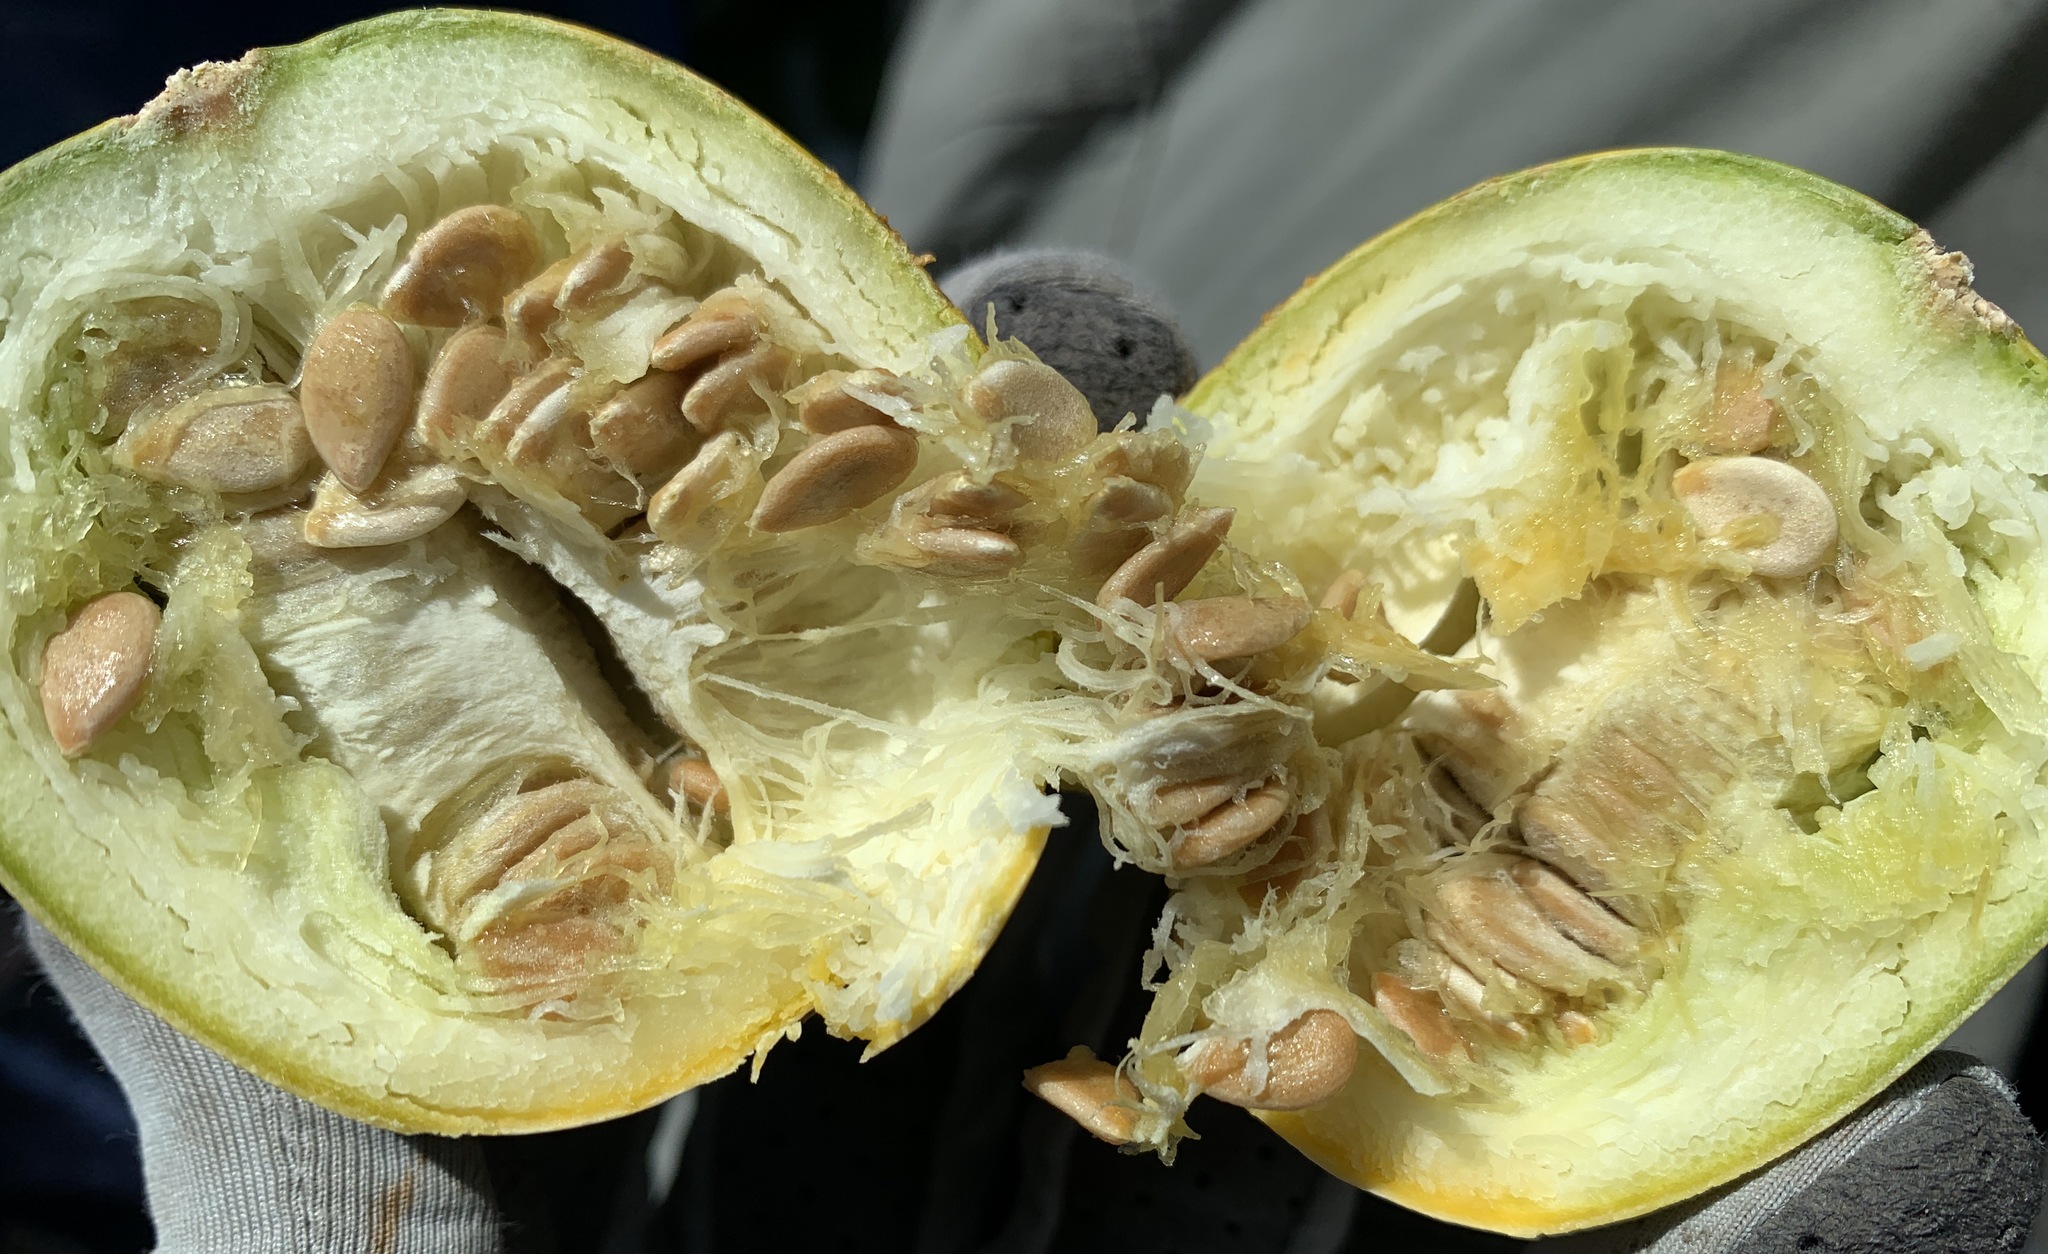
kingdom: Plantae
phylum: Tracheophyta
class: Magnoliopsida
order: Cucurbitales
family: Cucurbitaceae
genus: Cucurbita
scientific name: Cucurbita foetidissima
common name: Buffalo gourd
